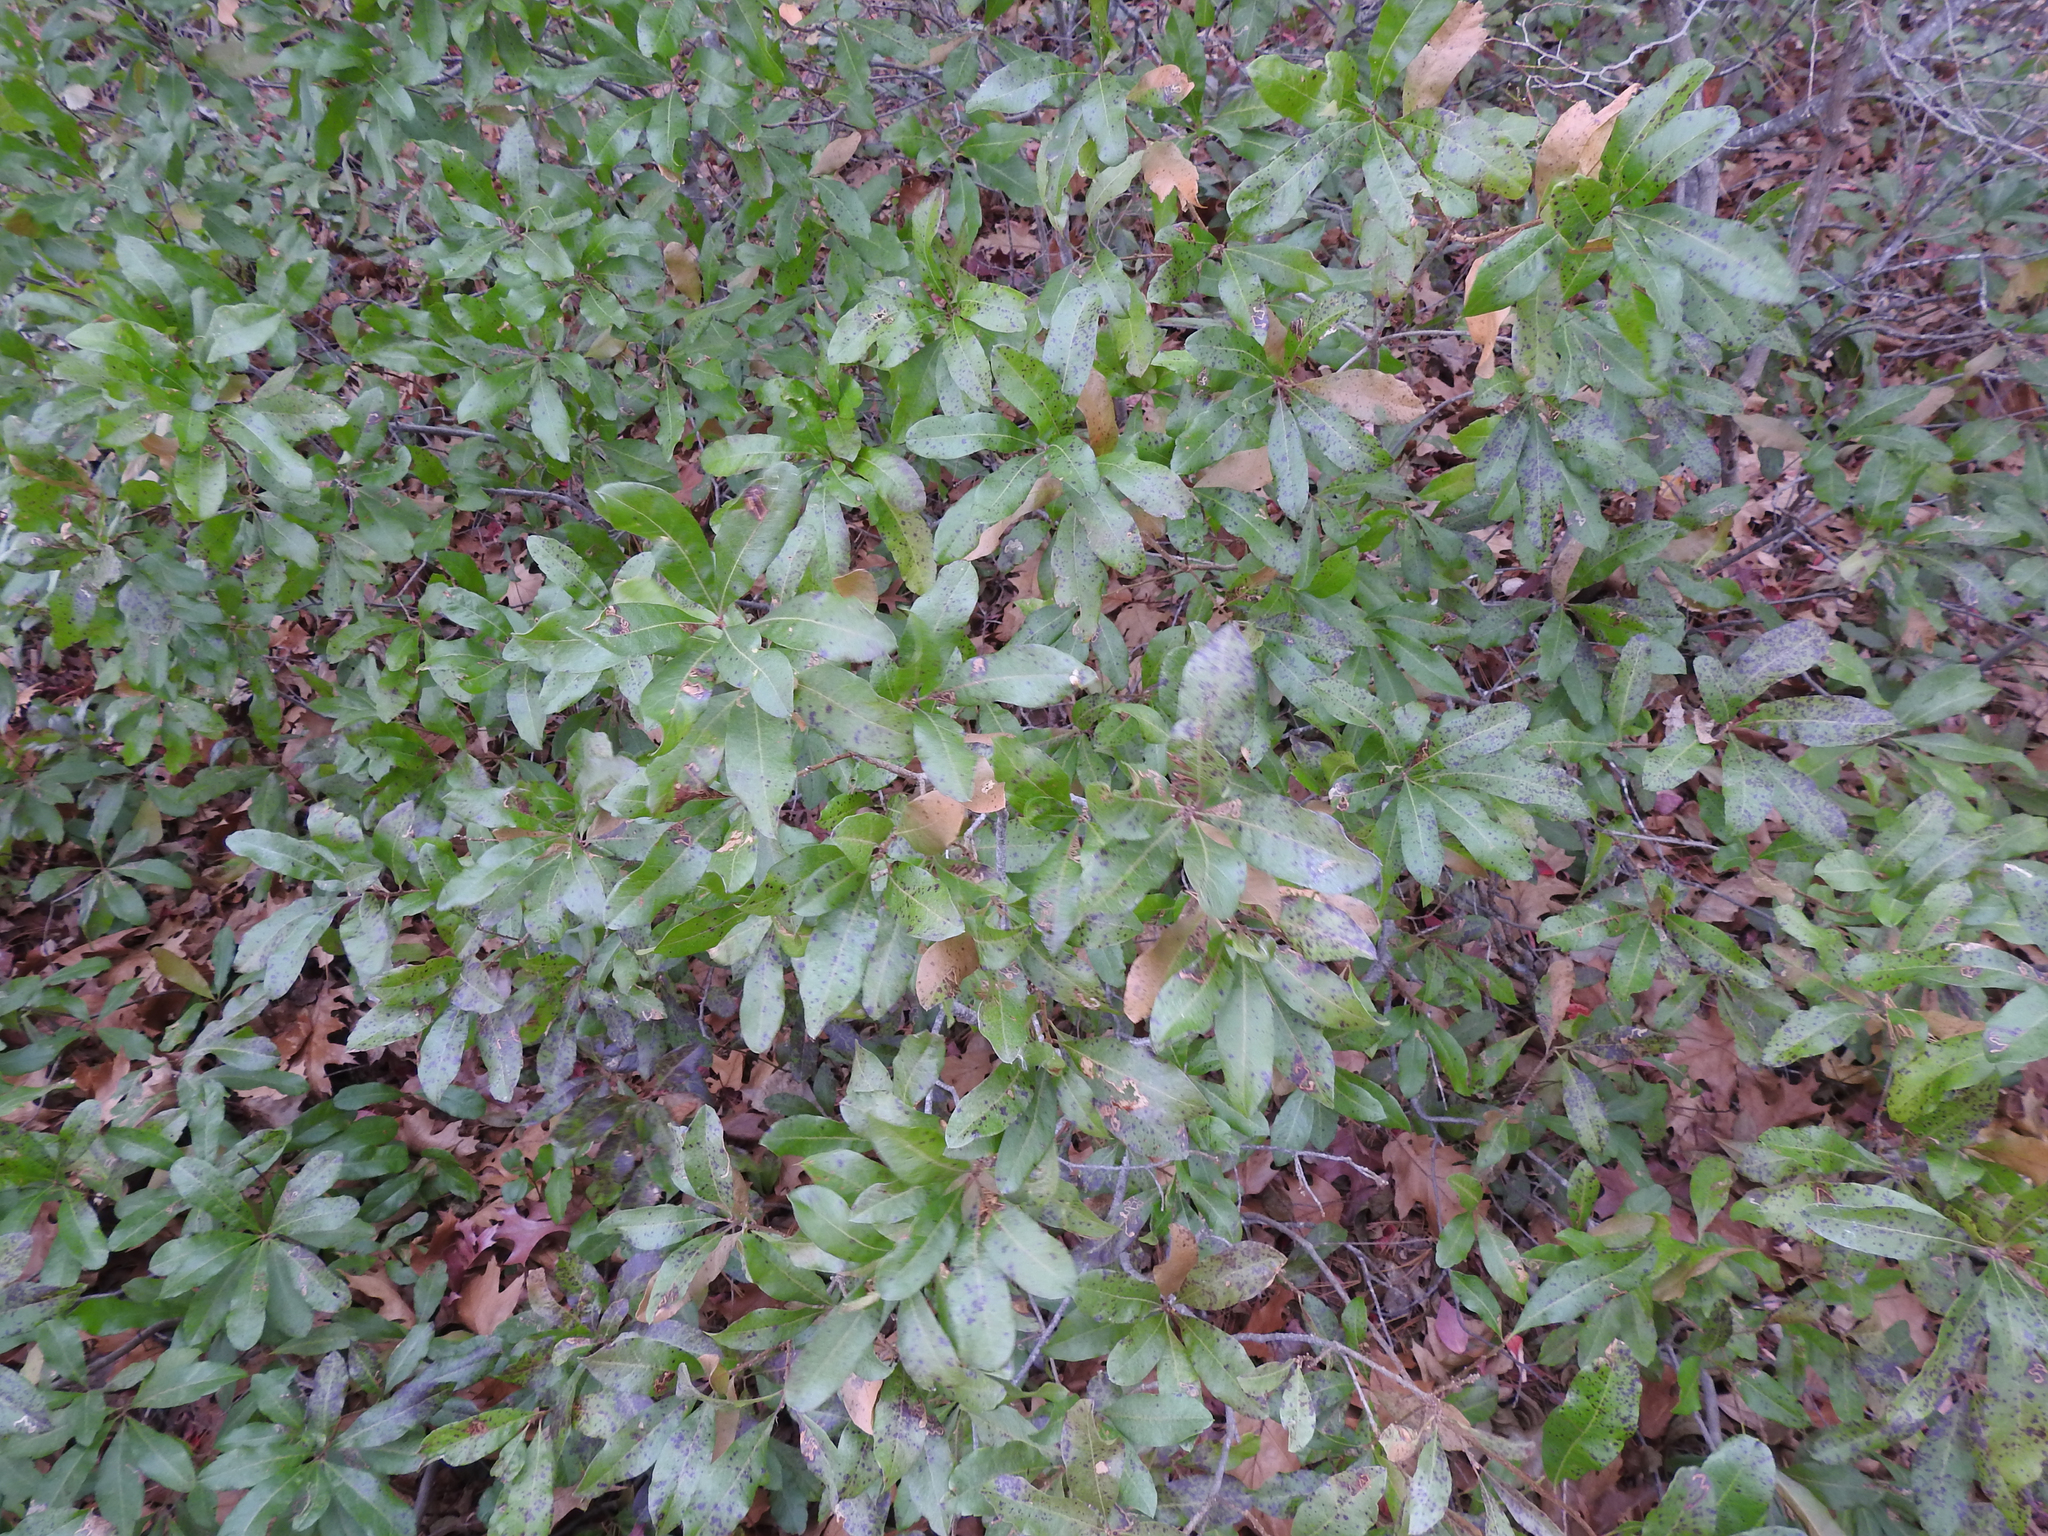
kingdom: Plantae
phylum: Tracheophyta
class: Magnoliopsida
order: Fagales
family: Myricaceae
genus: Morella
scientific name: Morella pensylvanica
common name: Northern bayberry
